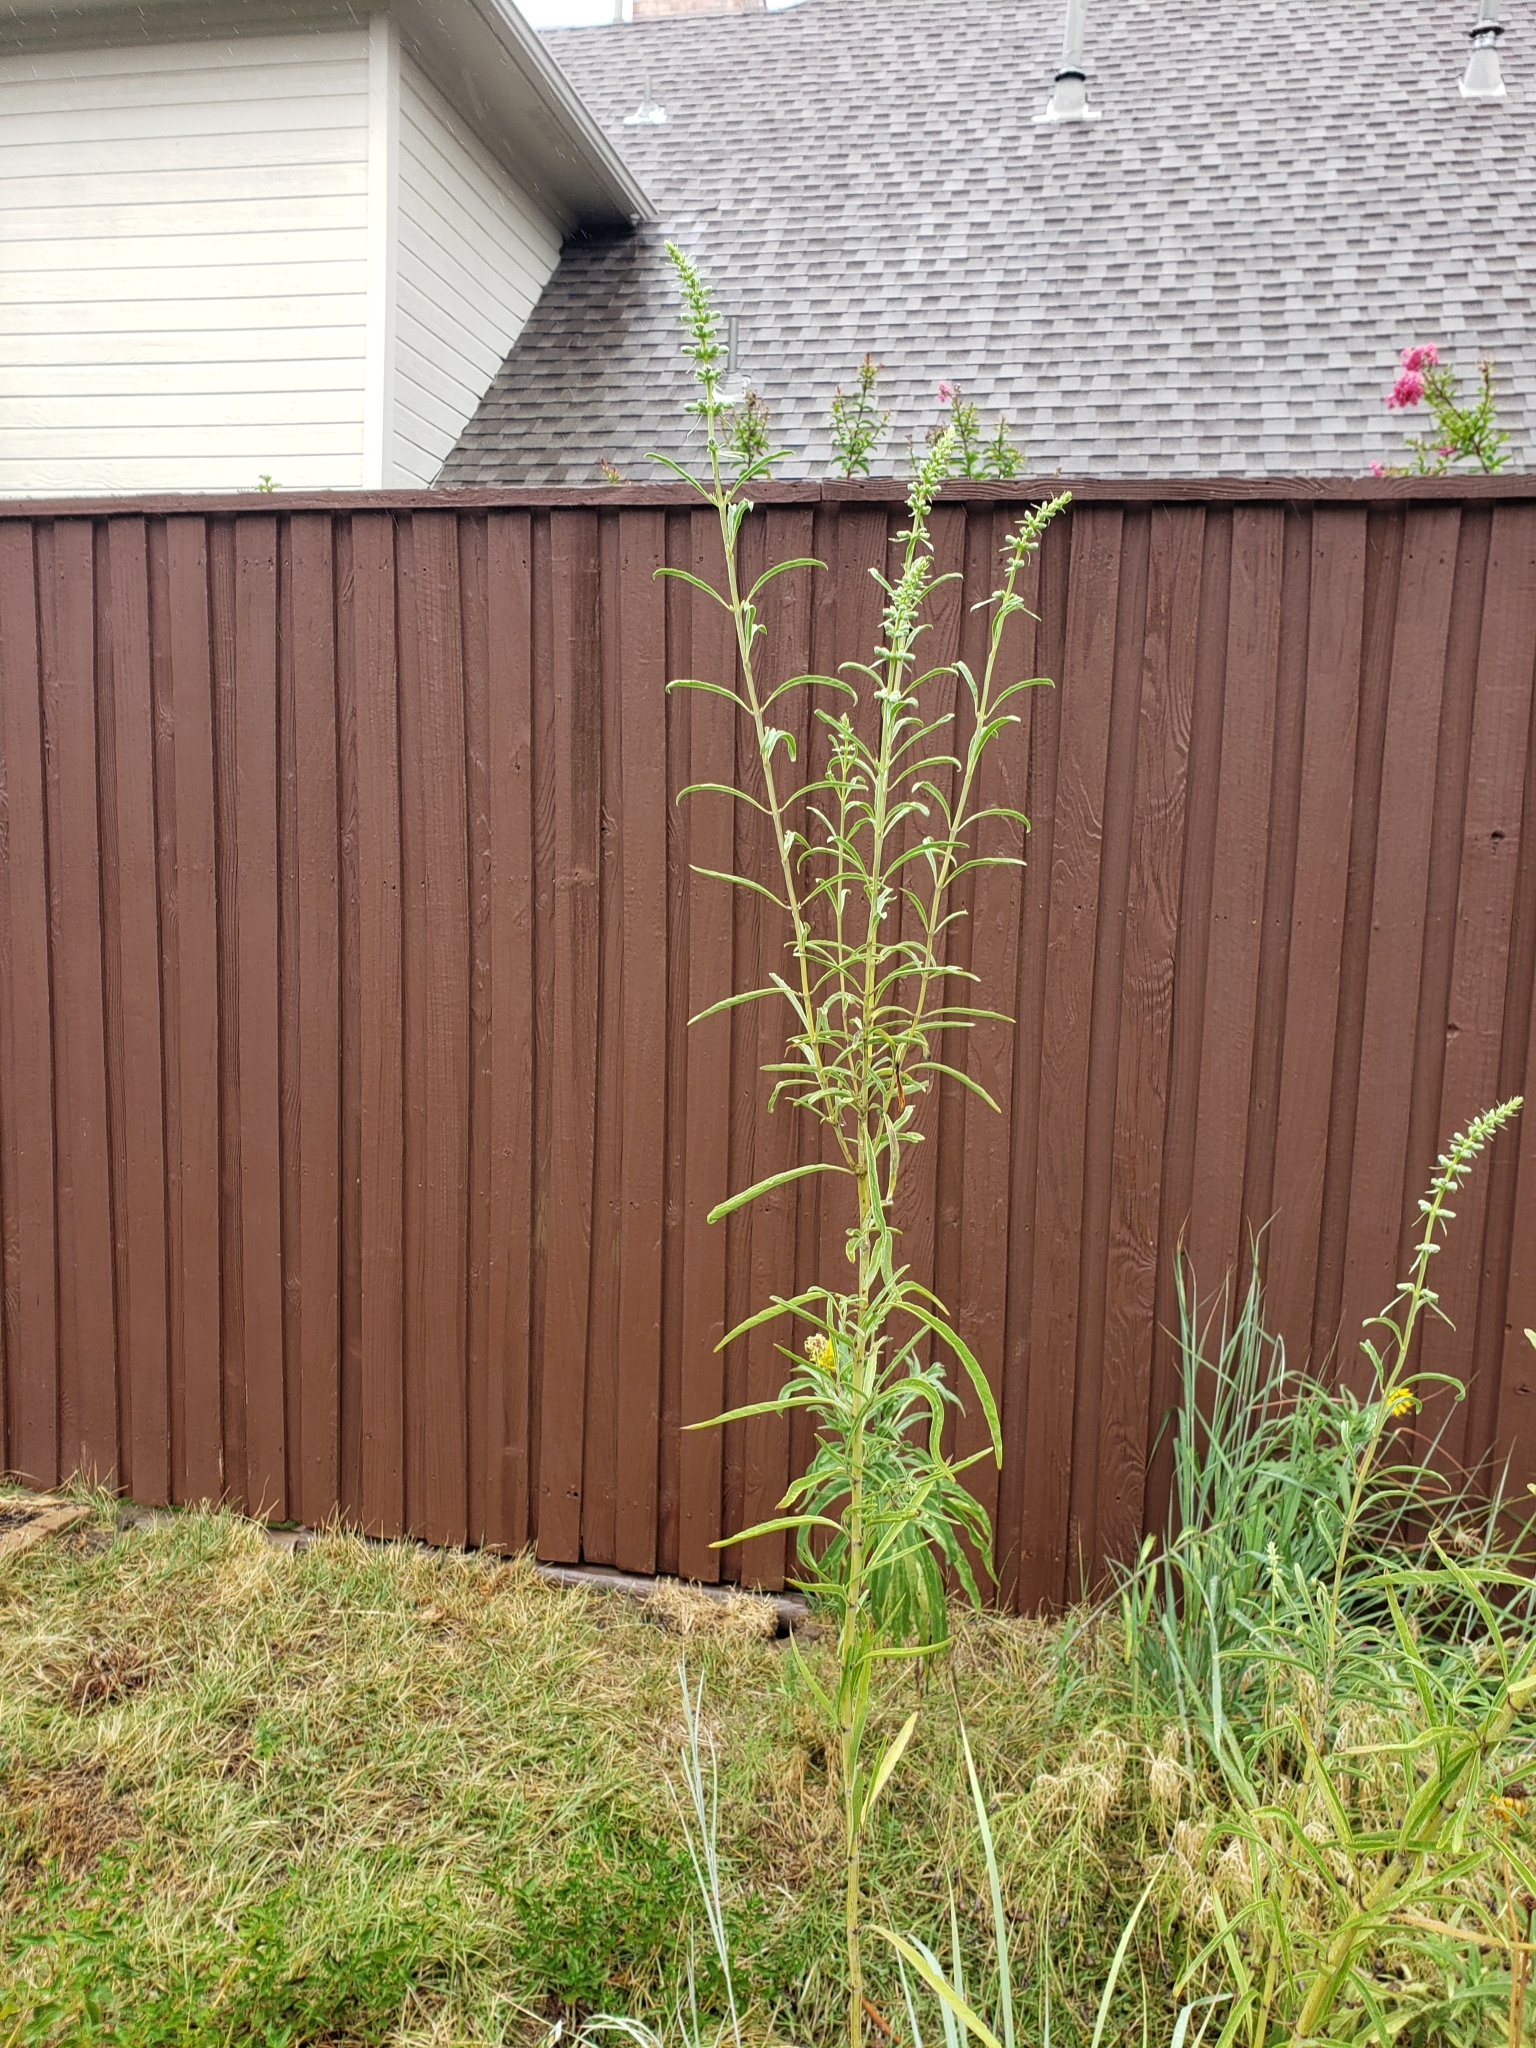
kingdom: Plantae
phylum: Tracheophyta
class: Magnoliopsida
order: Lamiales
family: Lamiaceae
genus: Salvia
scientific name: Salvia azurea
